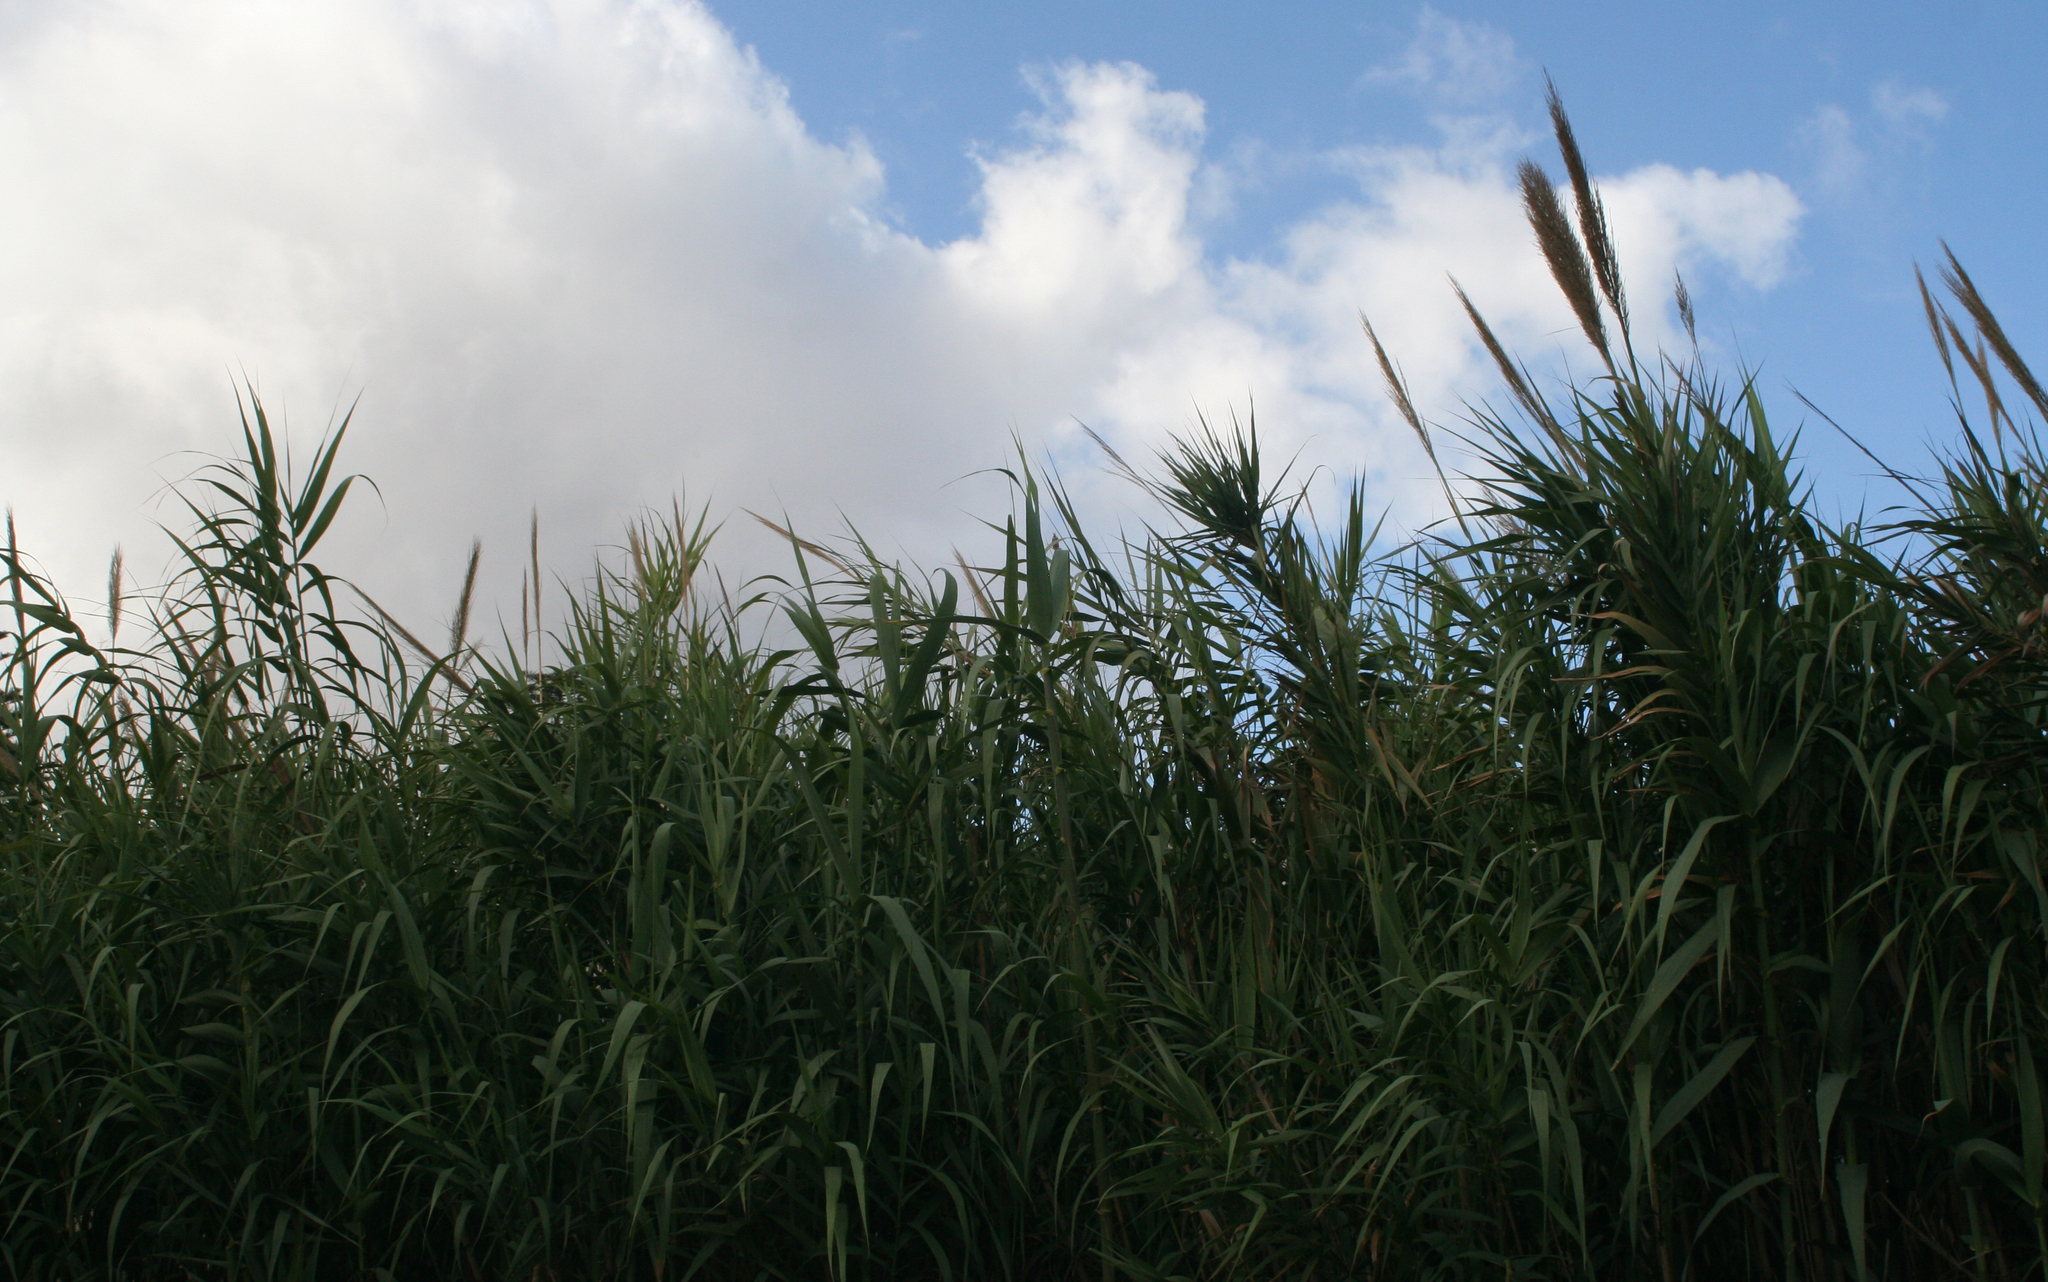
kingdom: Plantae
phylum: Tracheophyta
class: Liliopsida
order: Poales
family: Poaceae
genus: Arundo
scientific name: Arundo donax
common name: Giant reed
